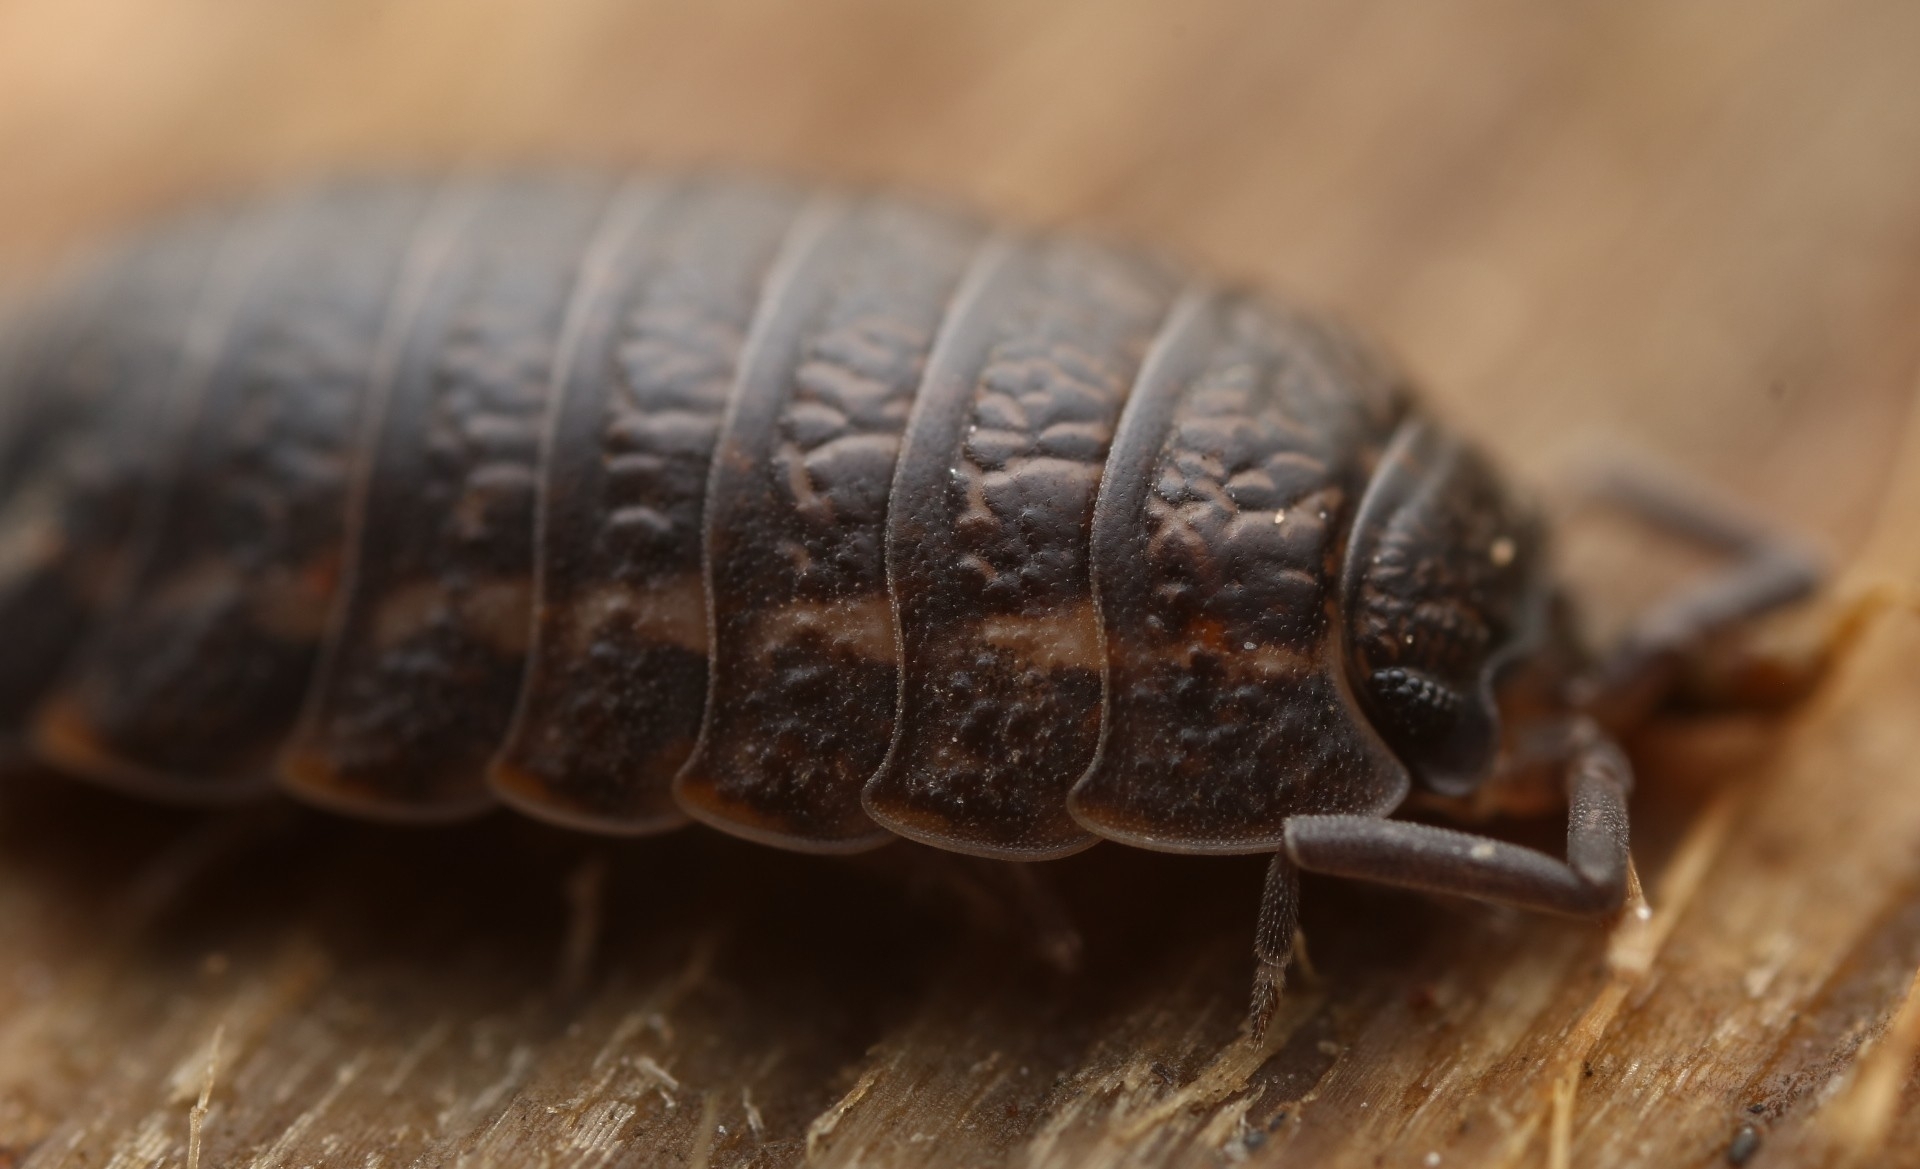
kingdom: Animalia
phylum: Arthropoda
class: Malacostraca
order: Isopoda
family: Trachelipodidae
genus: Trachelipus
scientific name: Trachelipus rathkii
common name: Isopod
